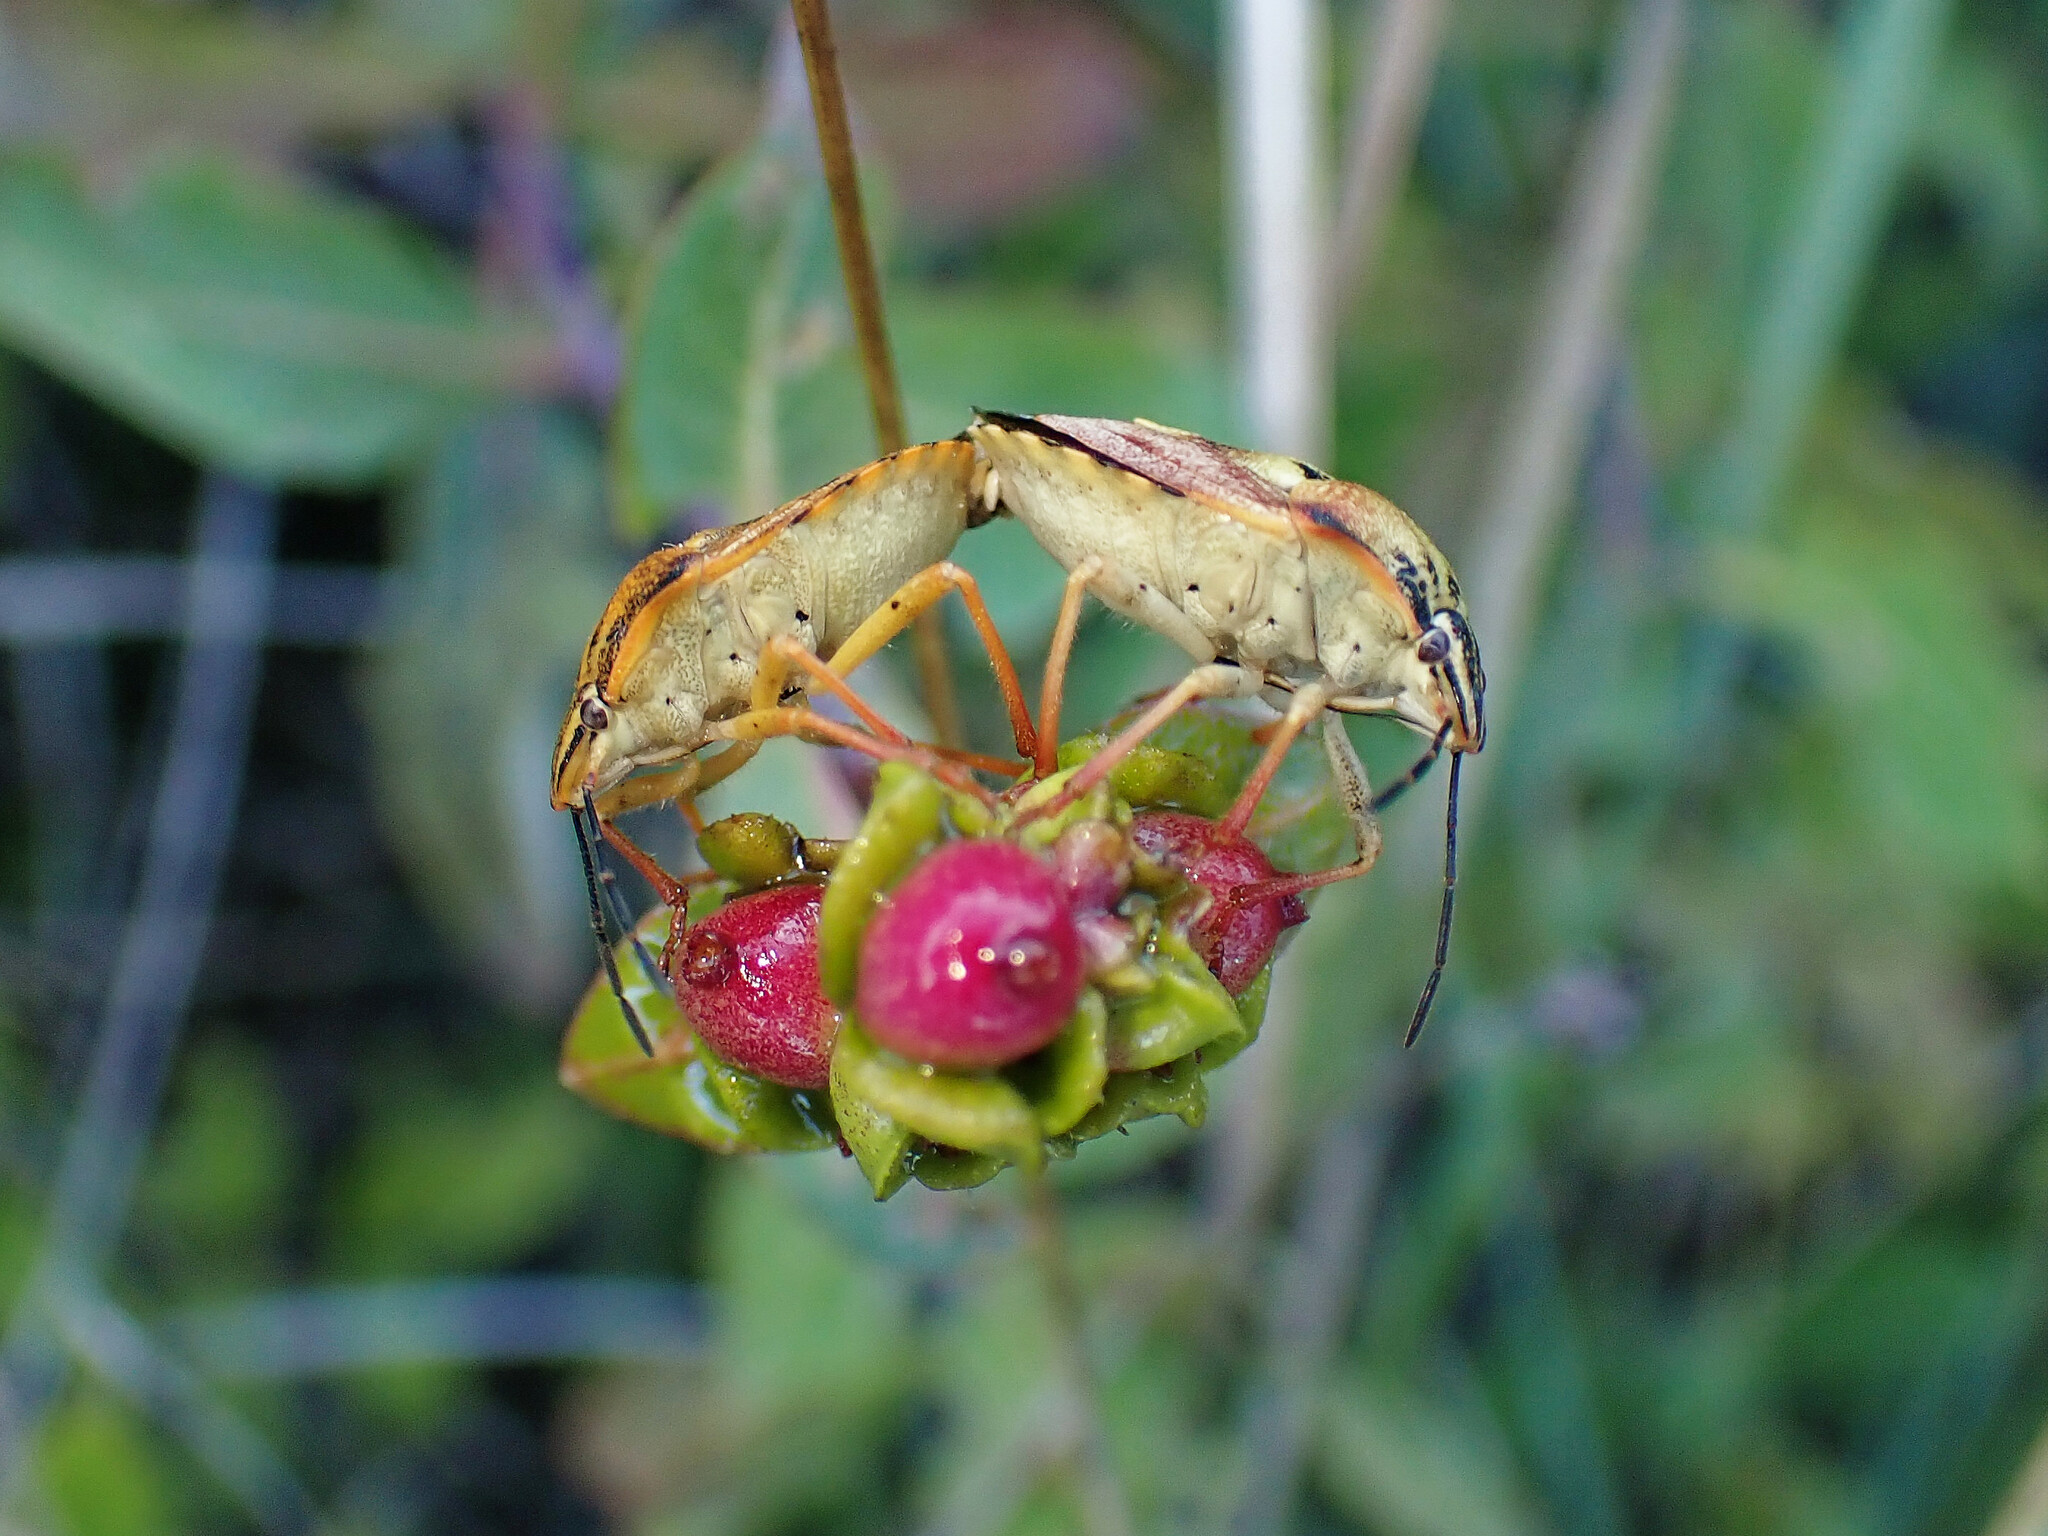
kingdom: Animalia
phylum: Arthropoda
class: Insecta
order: Hemiptera
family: Pentatomidae
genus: Carpocoris
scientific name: Carpocoris mediterraneus
